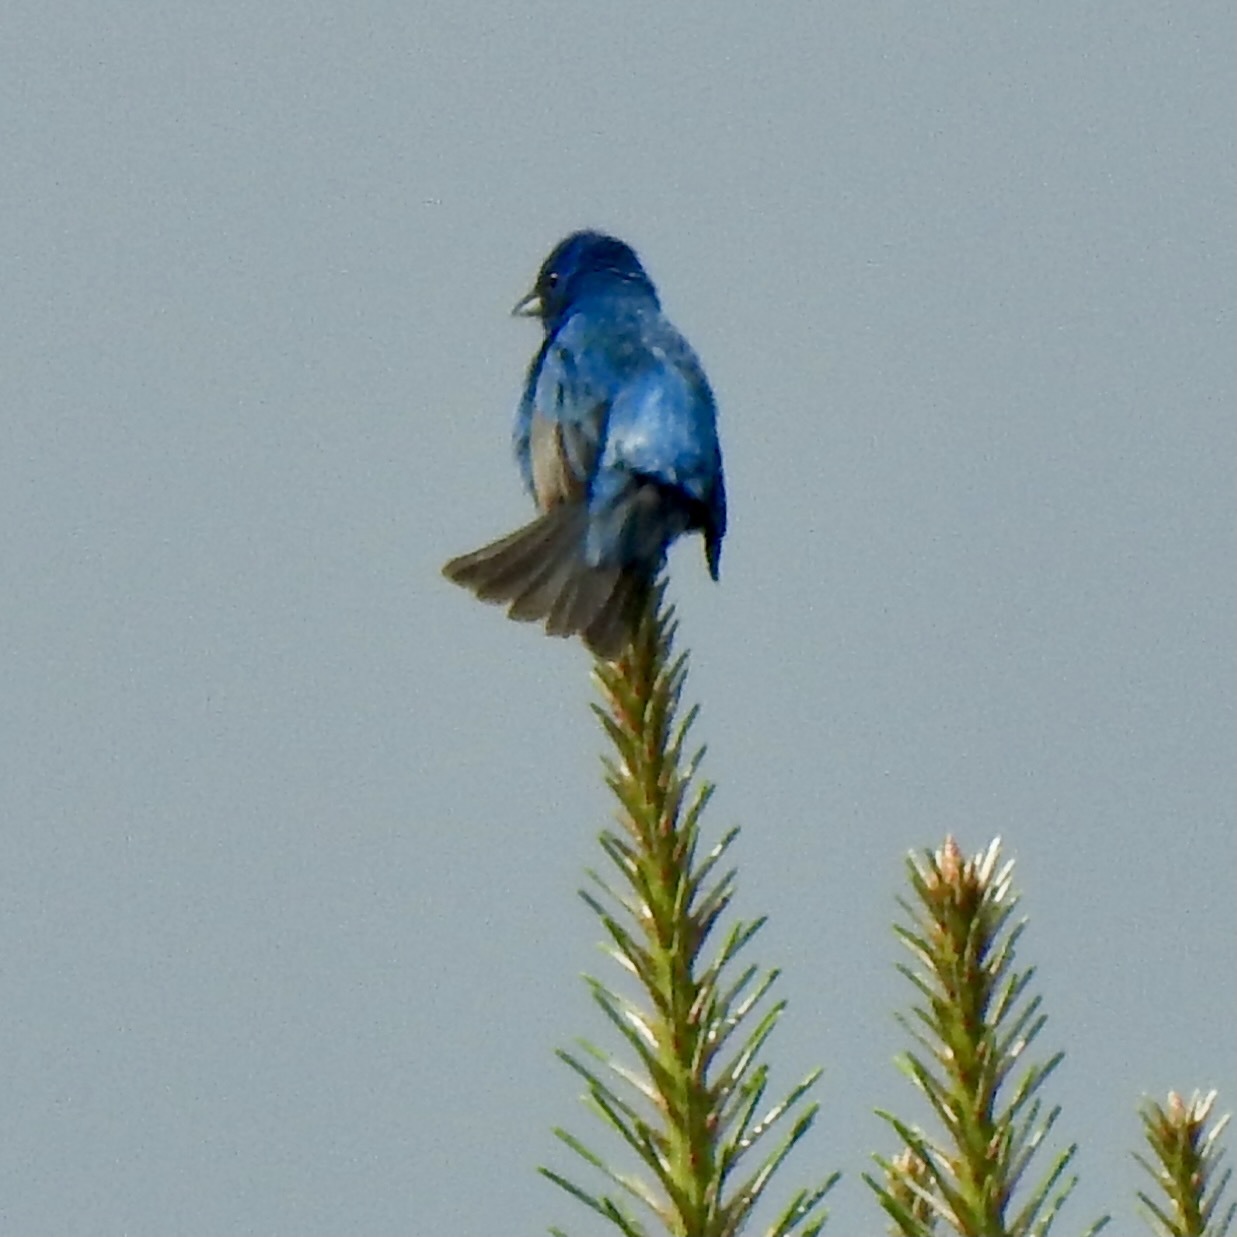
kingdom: Animalia
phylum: Chordata
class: Aves
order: Passeriformes
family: Cardinalidae
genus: Passerina
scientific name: Passerina cyanea
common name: Indigo bunting
